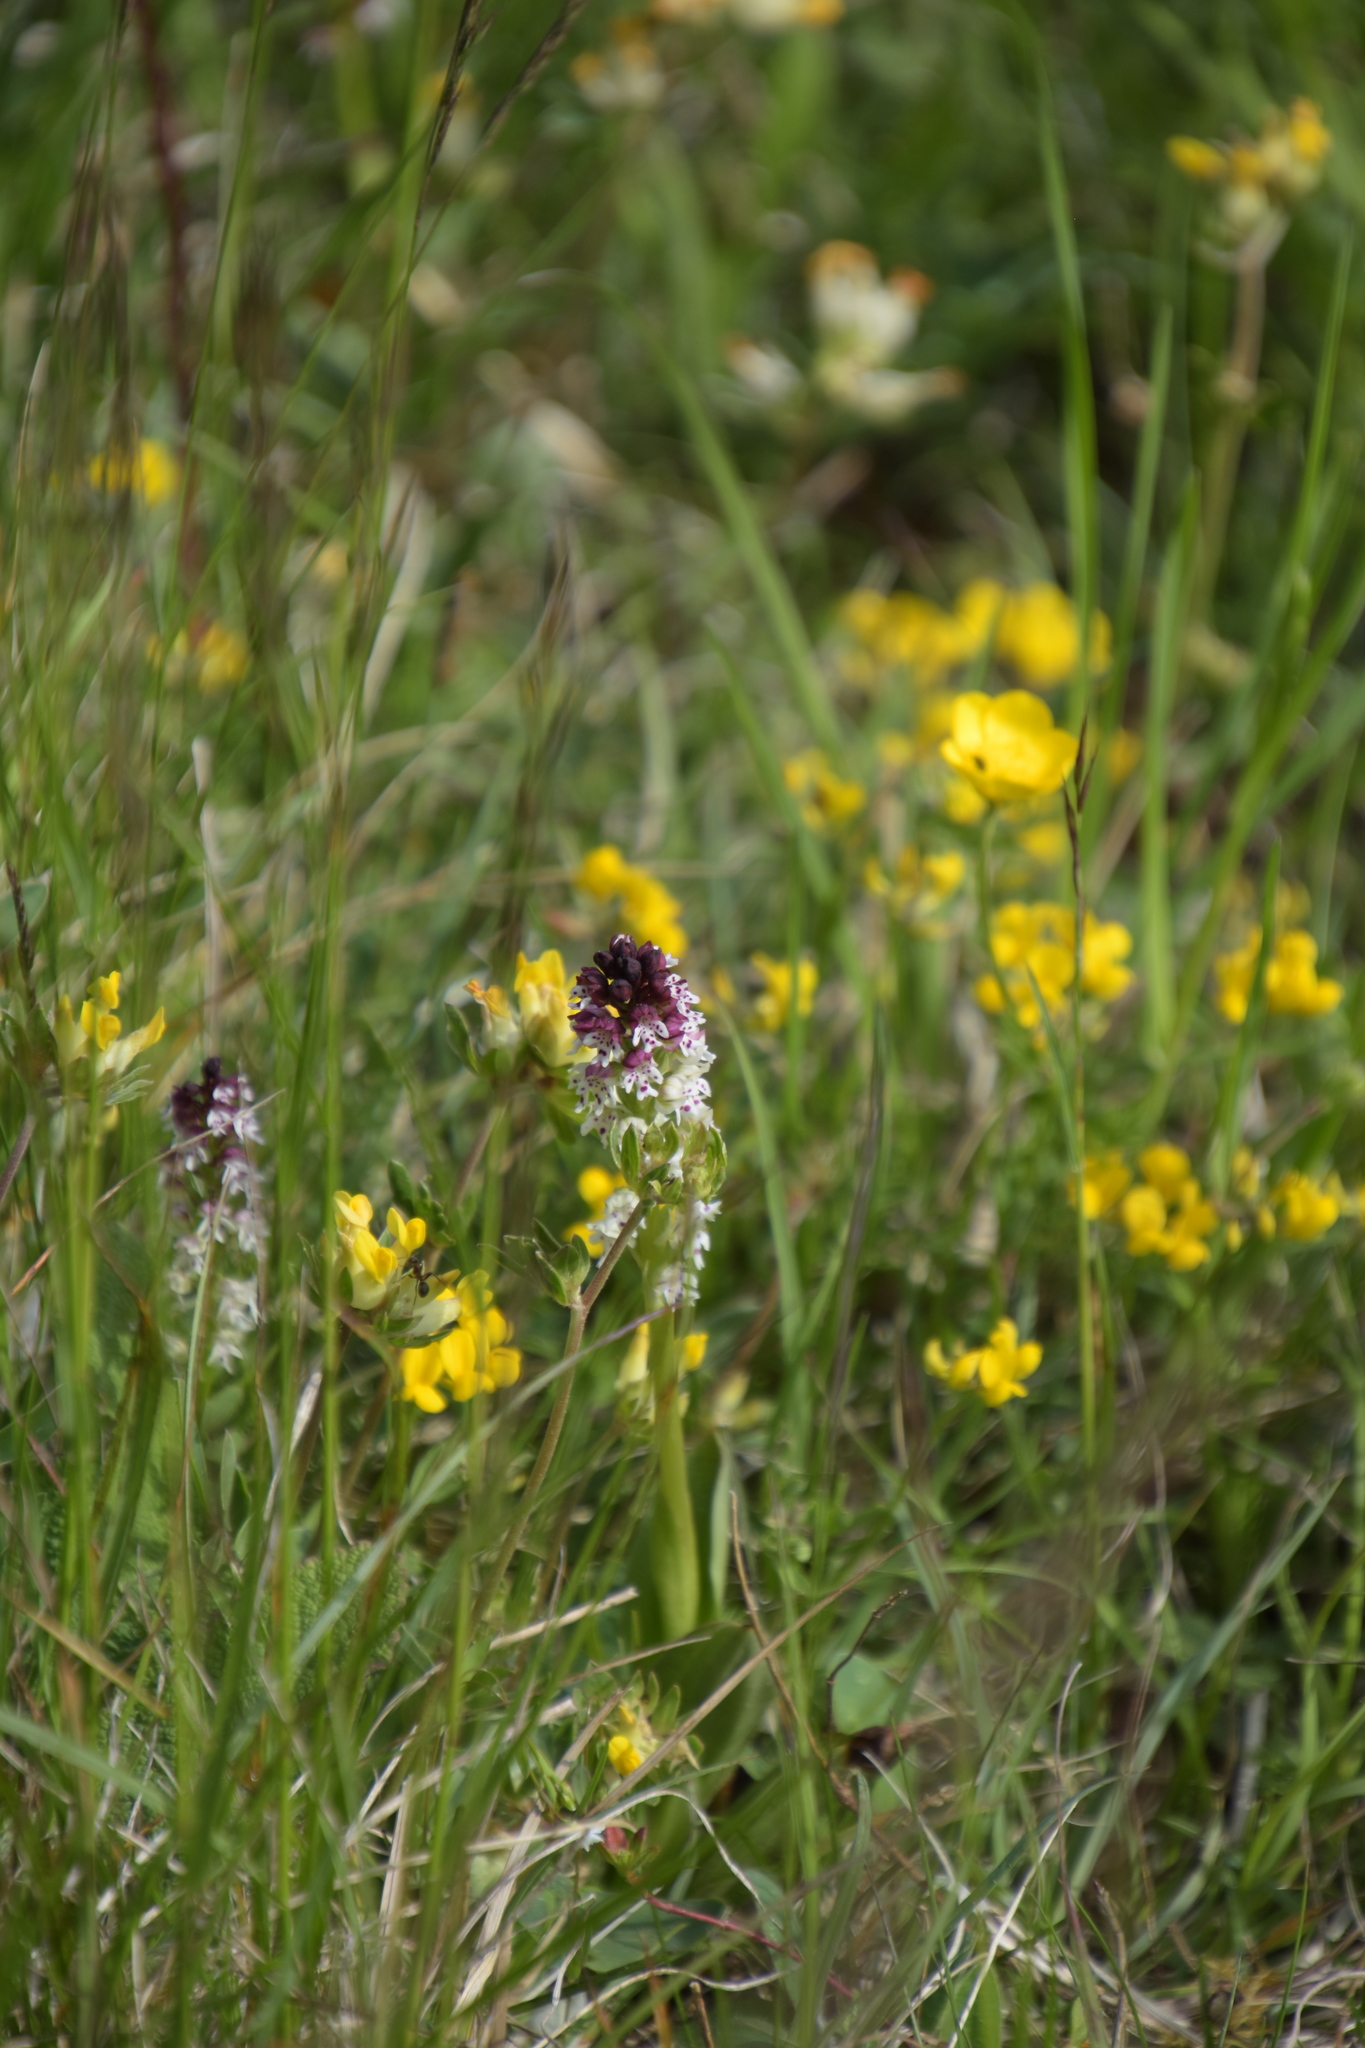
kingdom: Plantae
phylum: Tracheophyta
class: Liliopsida
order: Asparagales
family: Orchidaceae
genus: Neotinea
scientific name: Neotinea ustulata
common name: Burnt orchid
